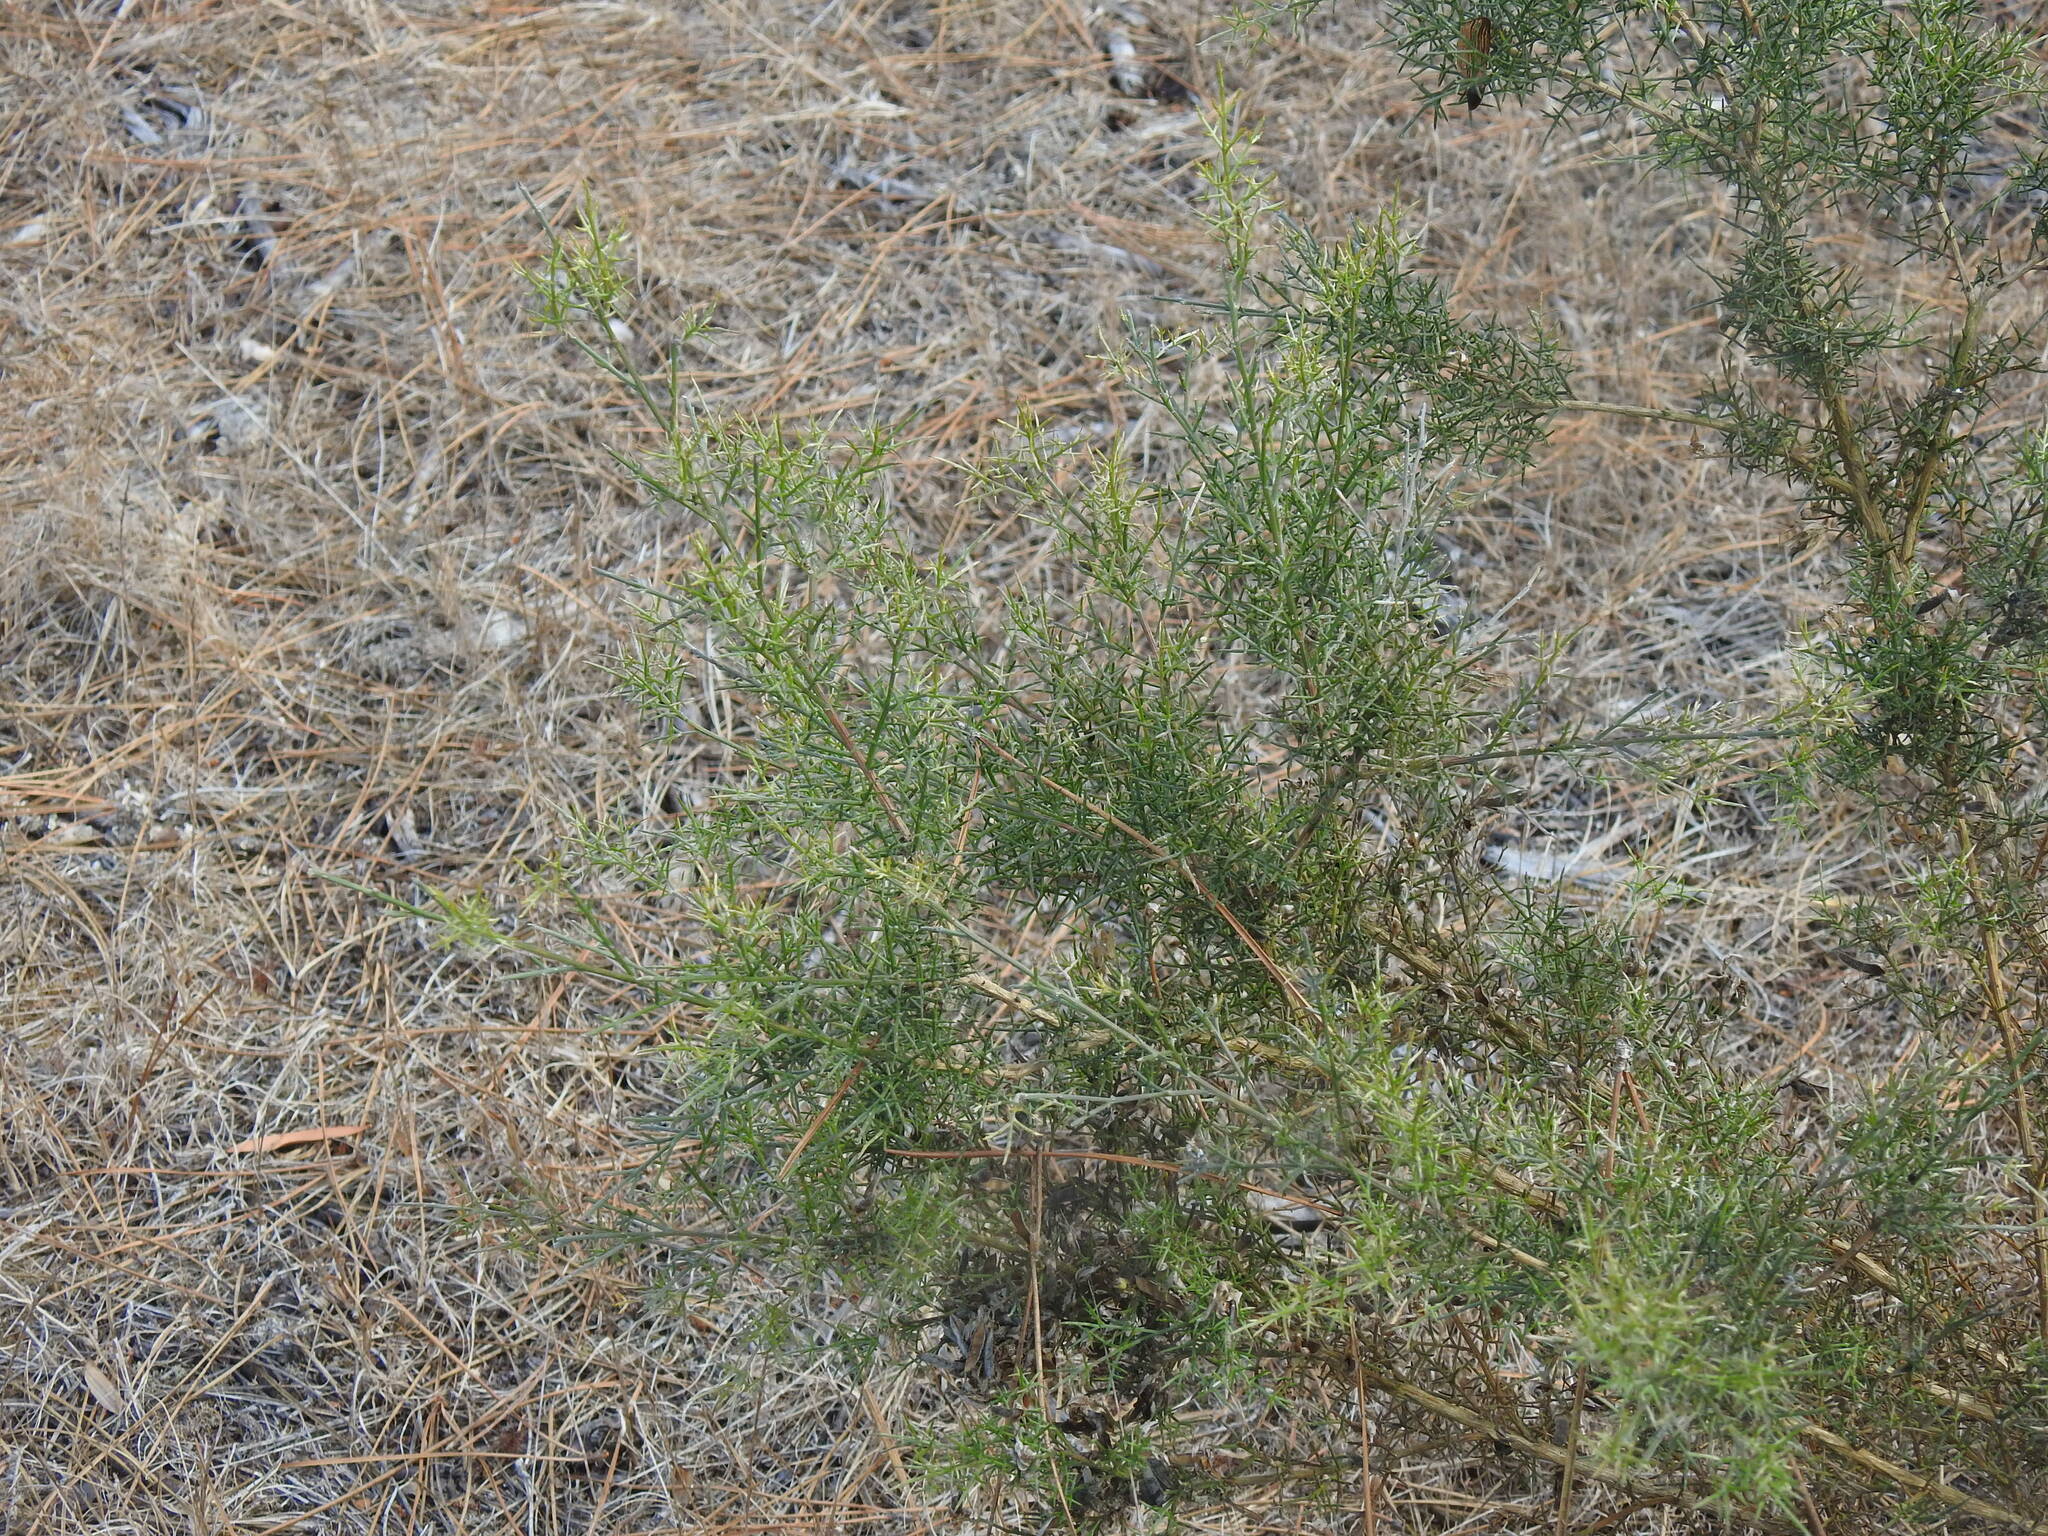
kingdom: Plantae
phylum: Tracheophyta
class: Magnoliopsida
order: Fabales
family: Fabaceae
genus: Stauracanthus
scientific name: Stauracanthus genistoides
